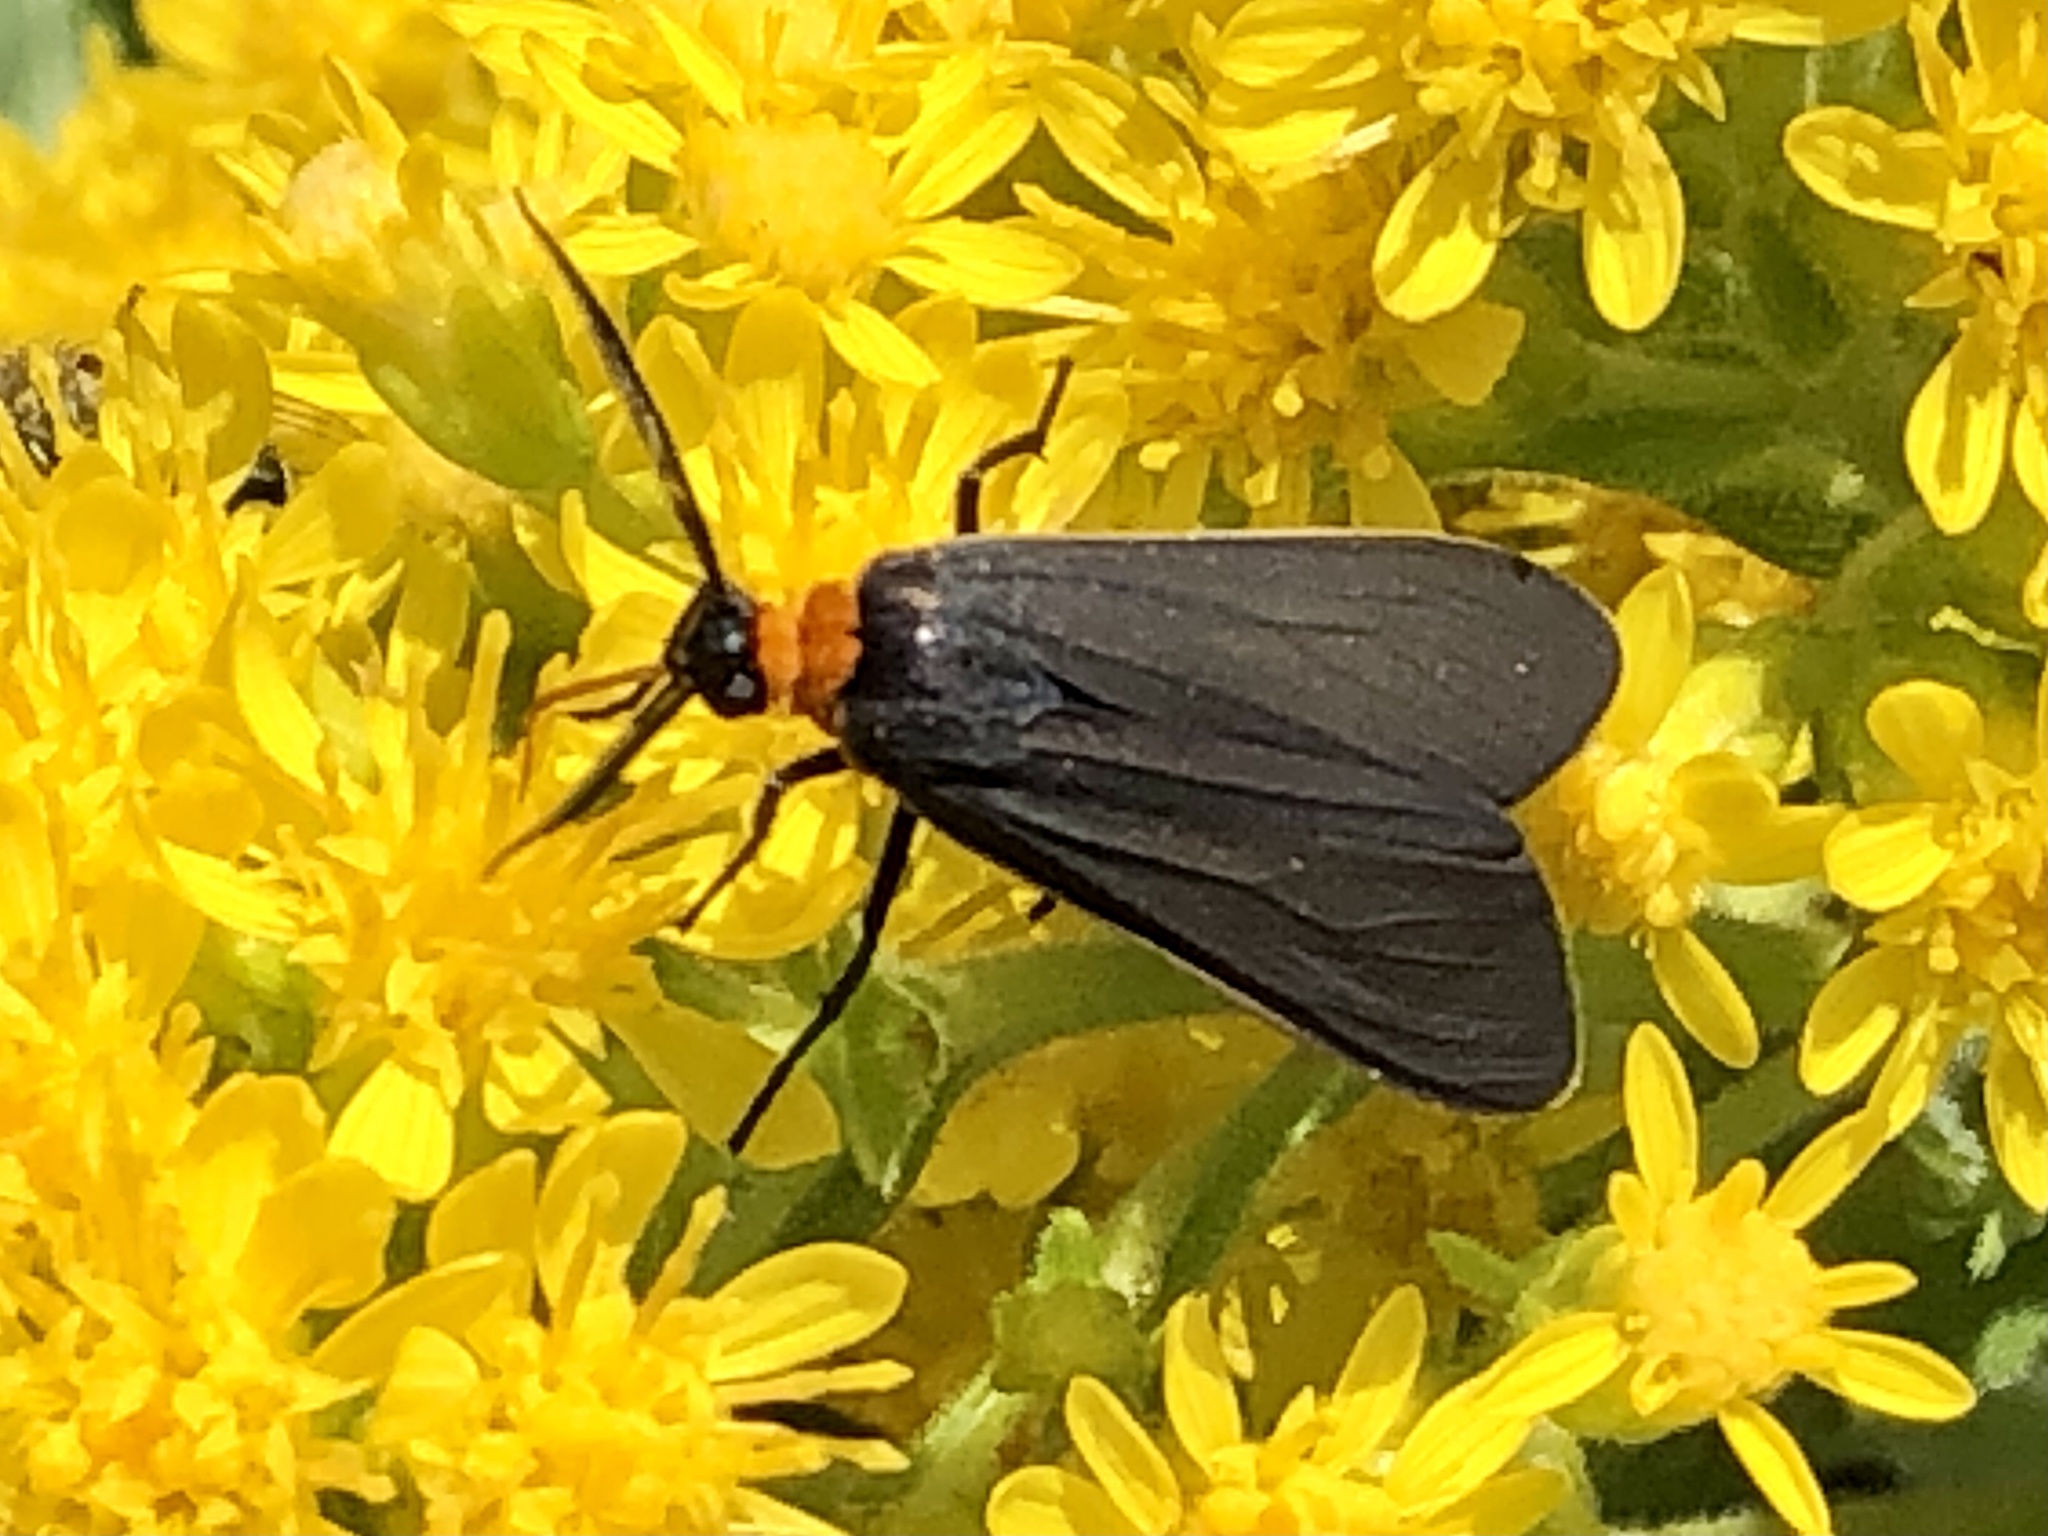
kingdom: Animalia
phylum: Arthropoda
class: Insecta
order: Lepidoptera
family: Erebidae
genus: Cisseps
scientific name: Cisseps fulvicollis
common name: Yellow-collared scape moth
